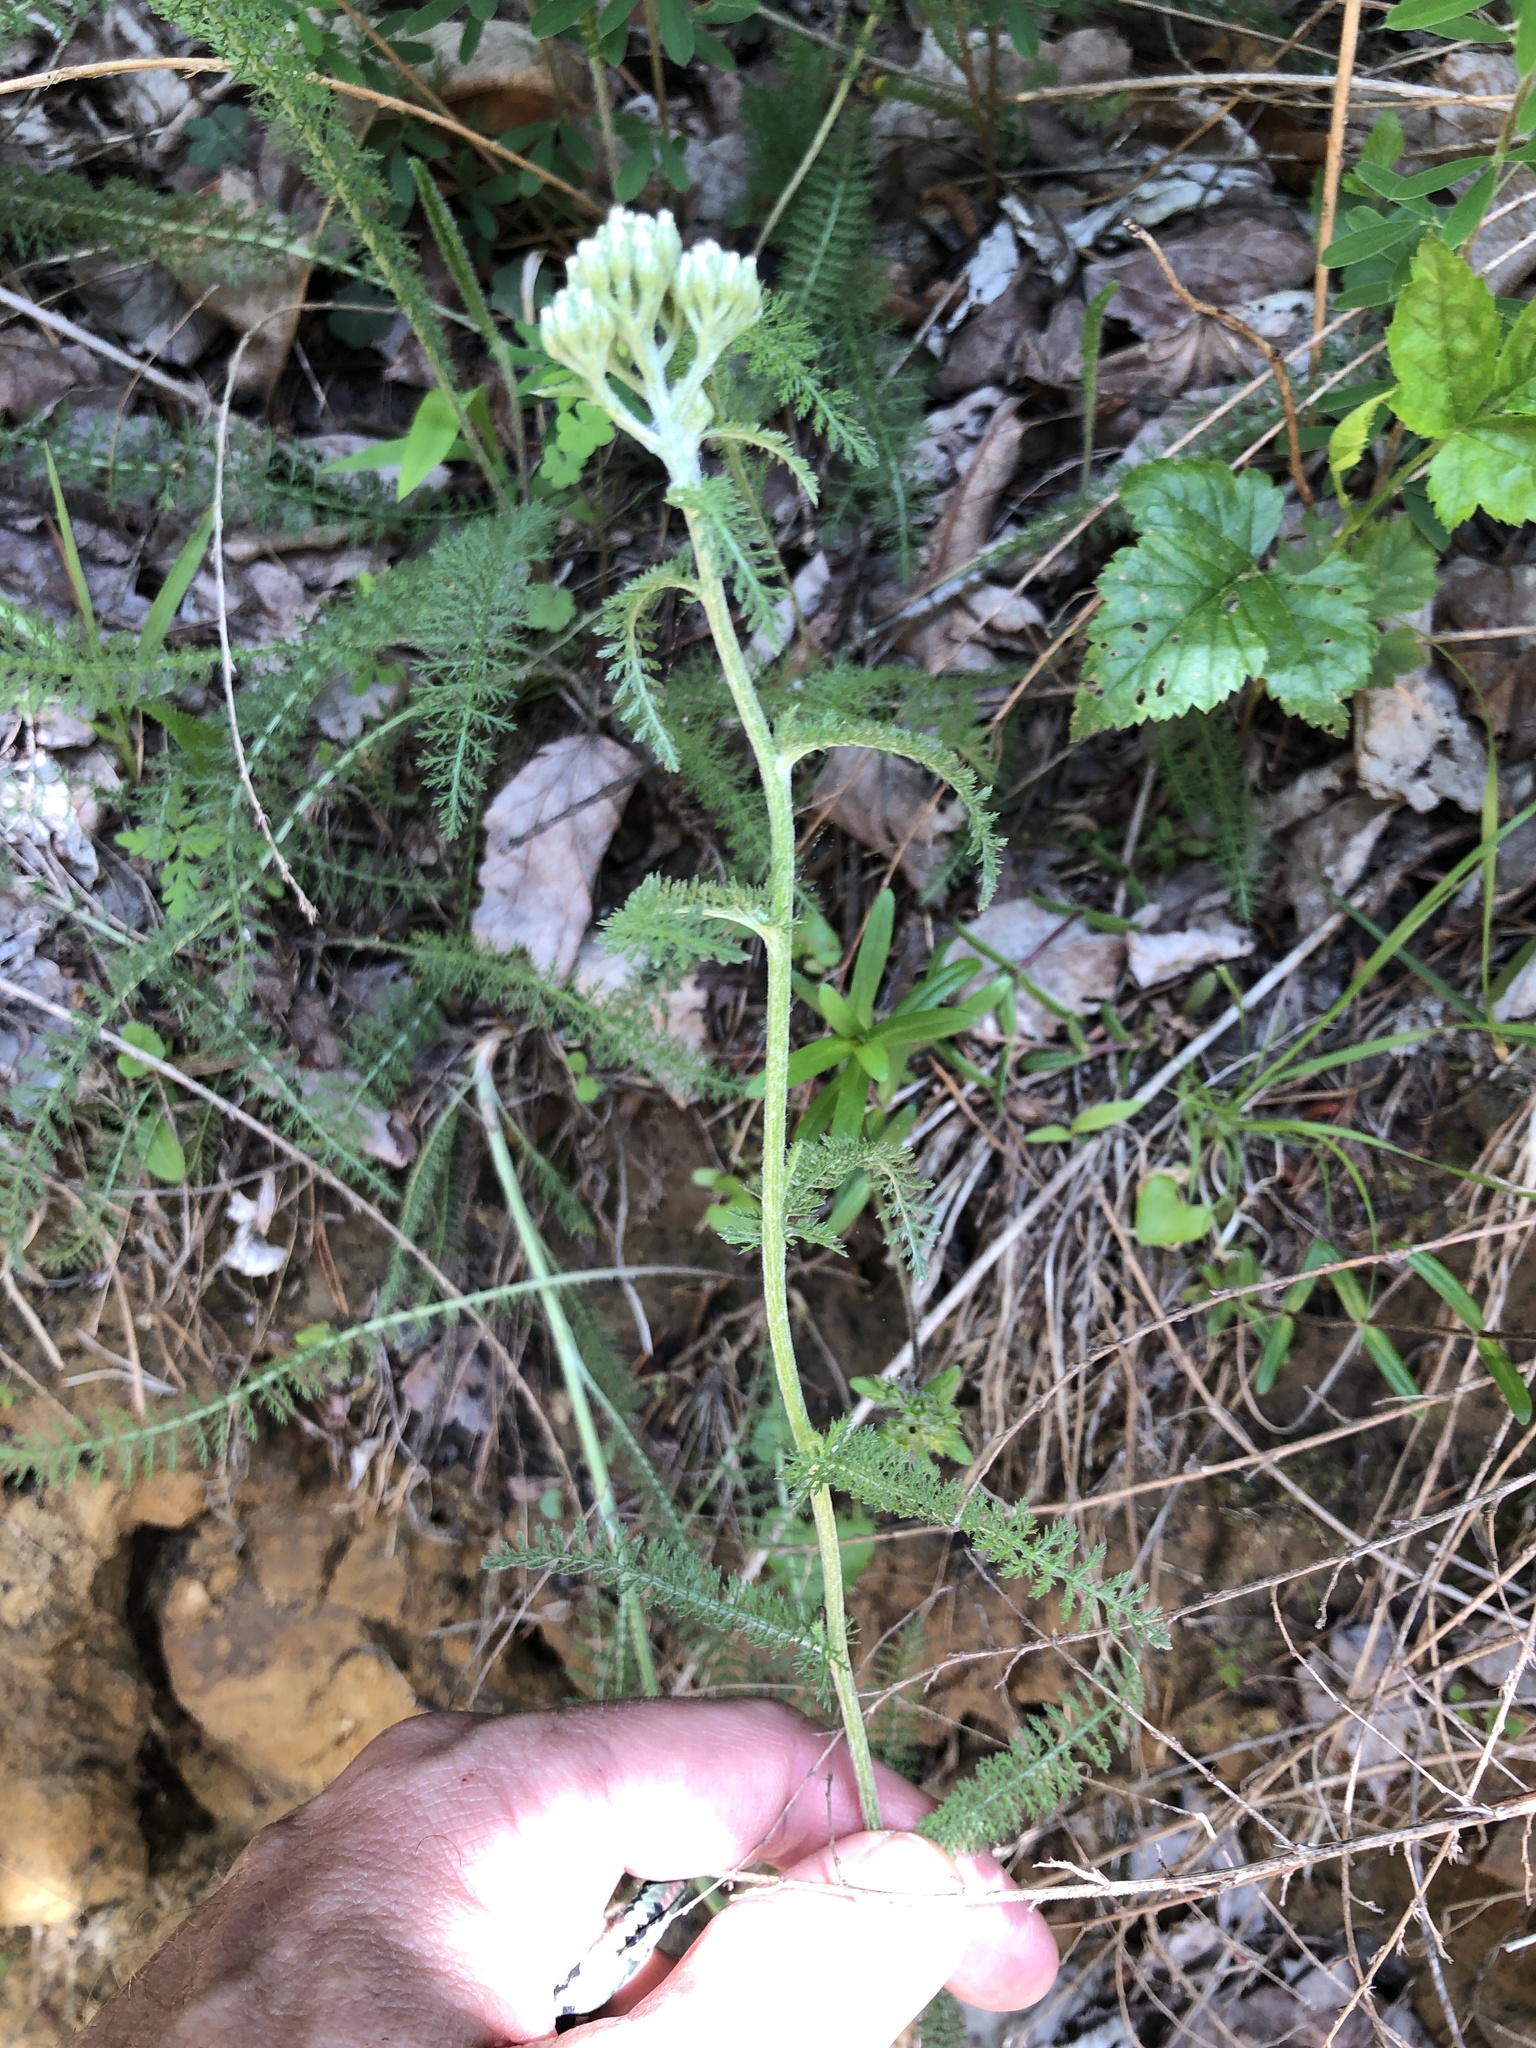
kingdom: Plantae
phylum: Tracheophyta
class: Magnoliopsida
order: Asterales
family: Asteraceae
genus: Achillea
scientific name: Achillea millefolium
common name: Yarrow
